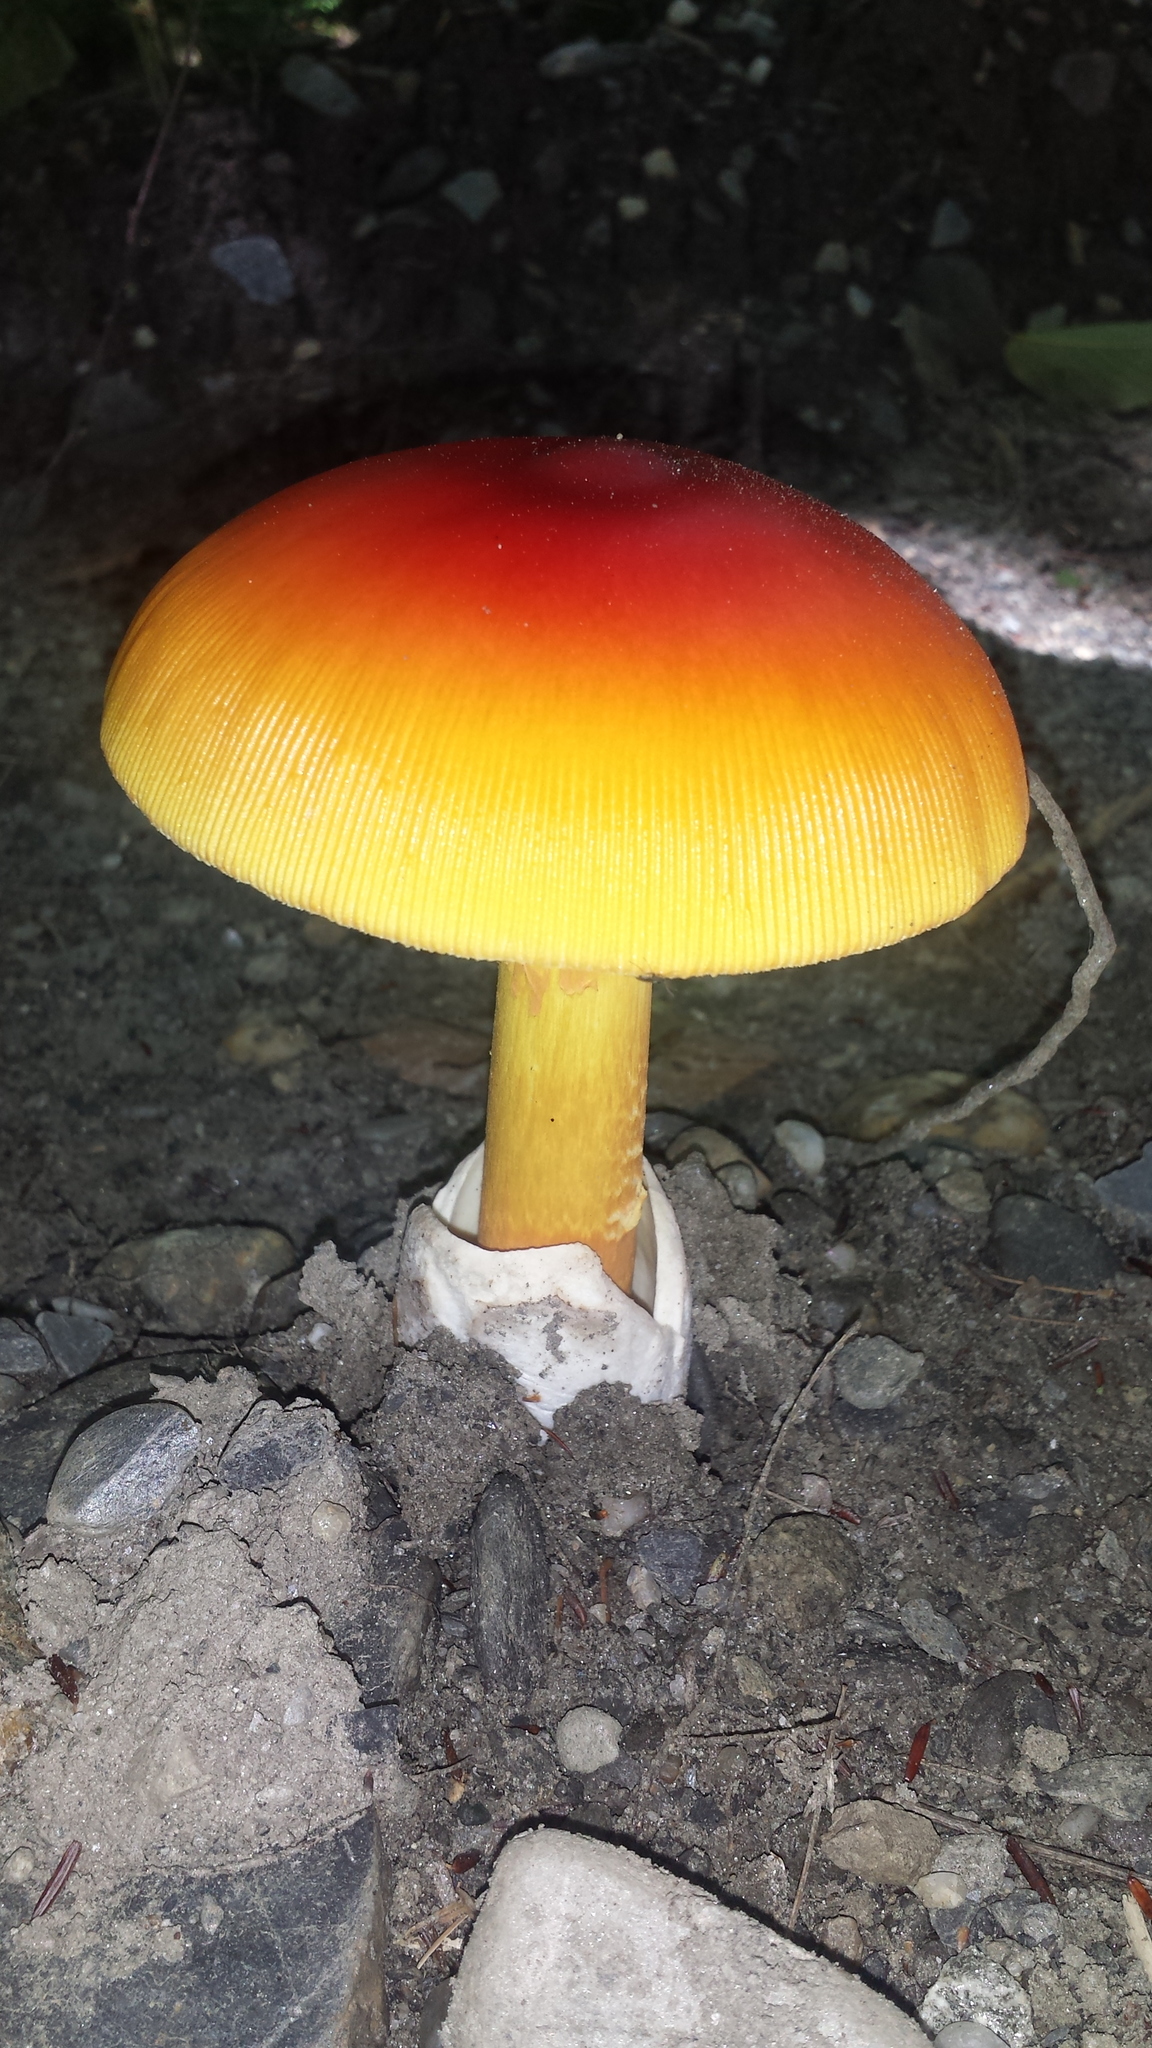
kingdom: Fungi
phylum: Basidiomycota
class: Agaricomycetes
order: Agaricales
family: Amanitaceae
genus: Amanita
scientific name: Amanita jacksonii
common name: Jackson's slender caesar
